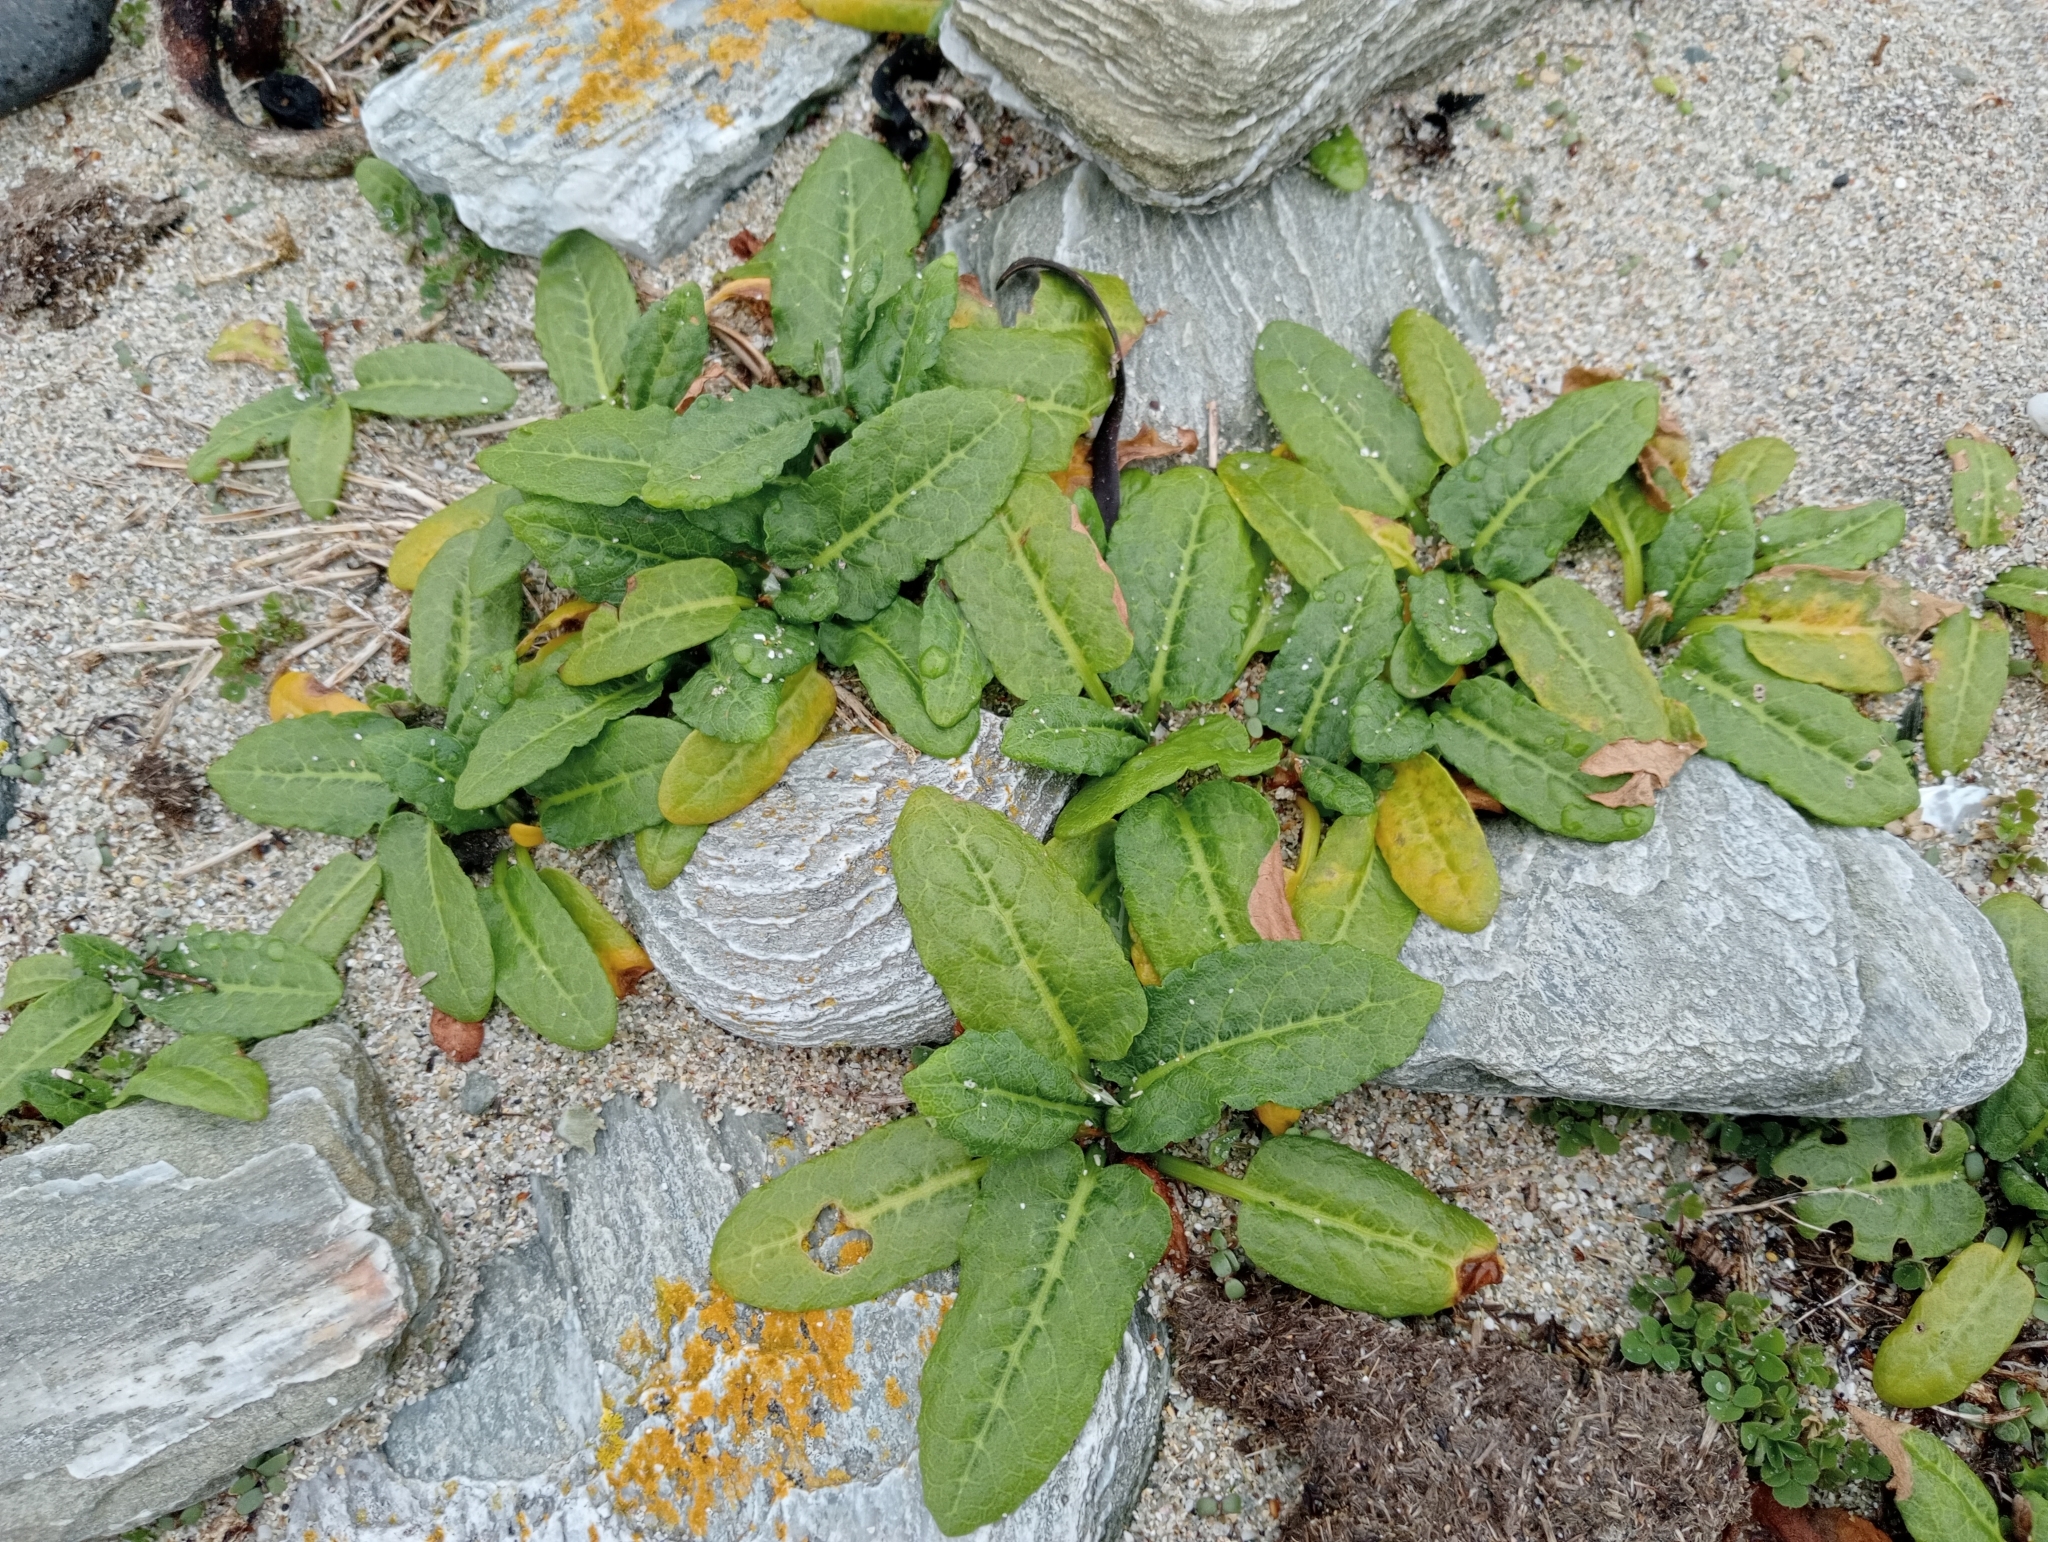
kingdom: Plantae
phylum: Tracheophyta
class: Magnoliopsida
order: Caryophyllales
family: Polygonaceae
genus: Rumex
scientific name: Rumex neglectus
